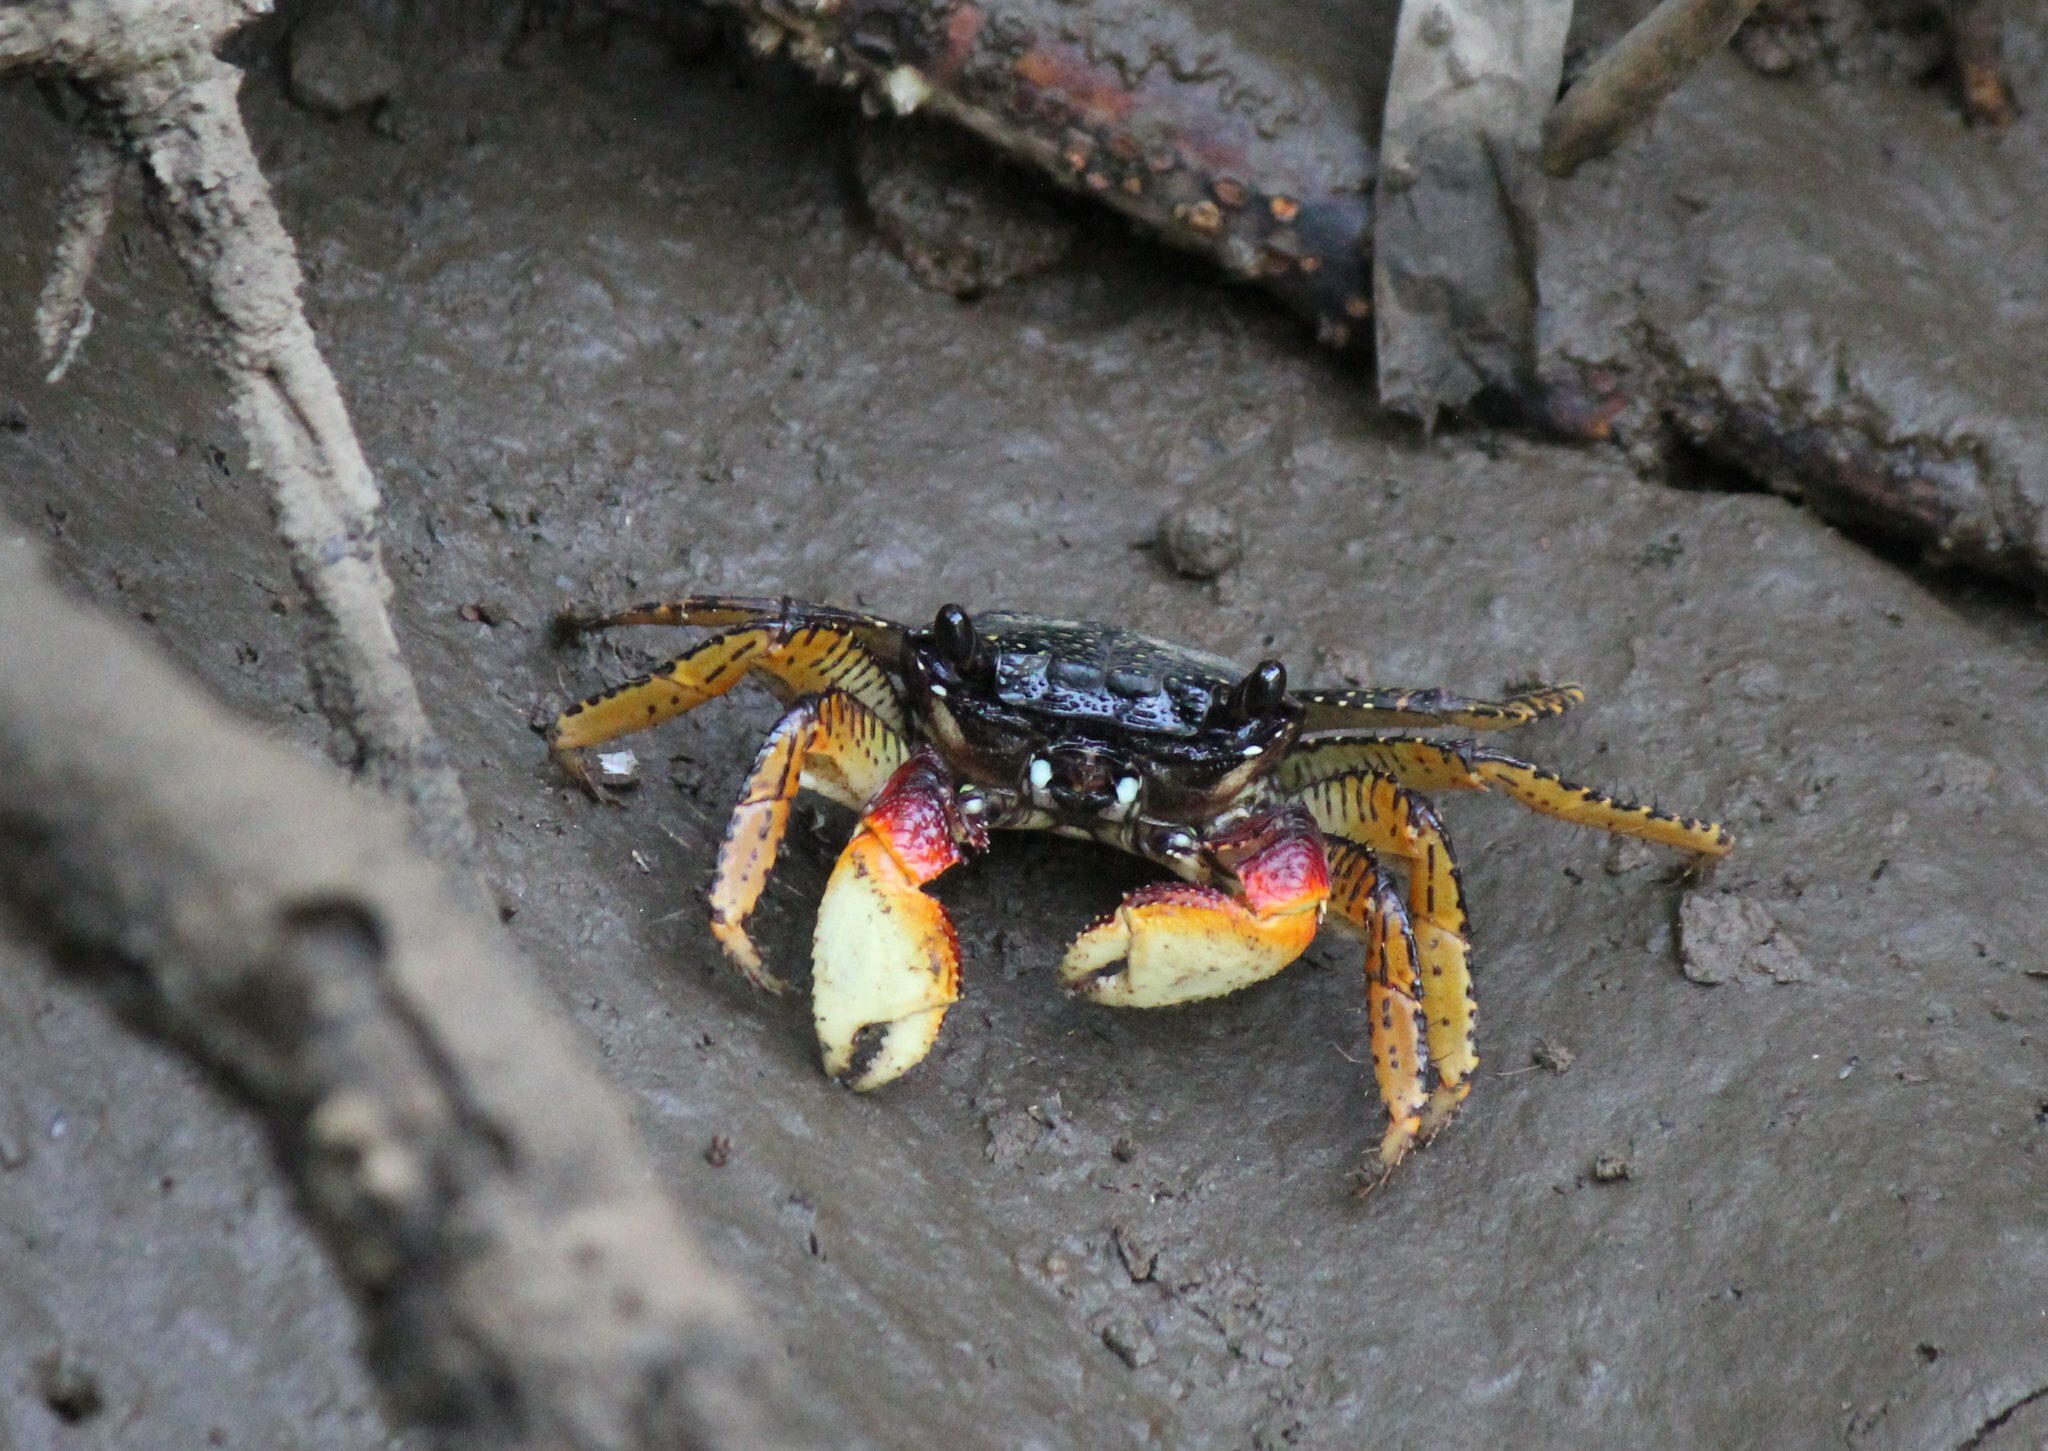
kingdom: Animalia
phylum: Arthropoda
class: Malacostraca
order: Decapoda
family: Grapsidae
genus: Goniopsis
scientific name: Goniopsis pulchra
